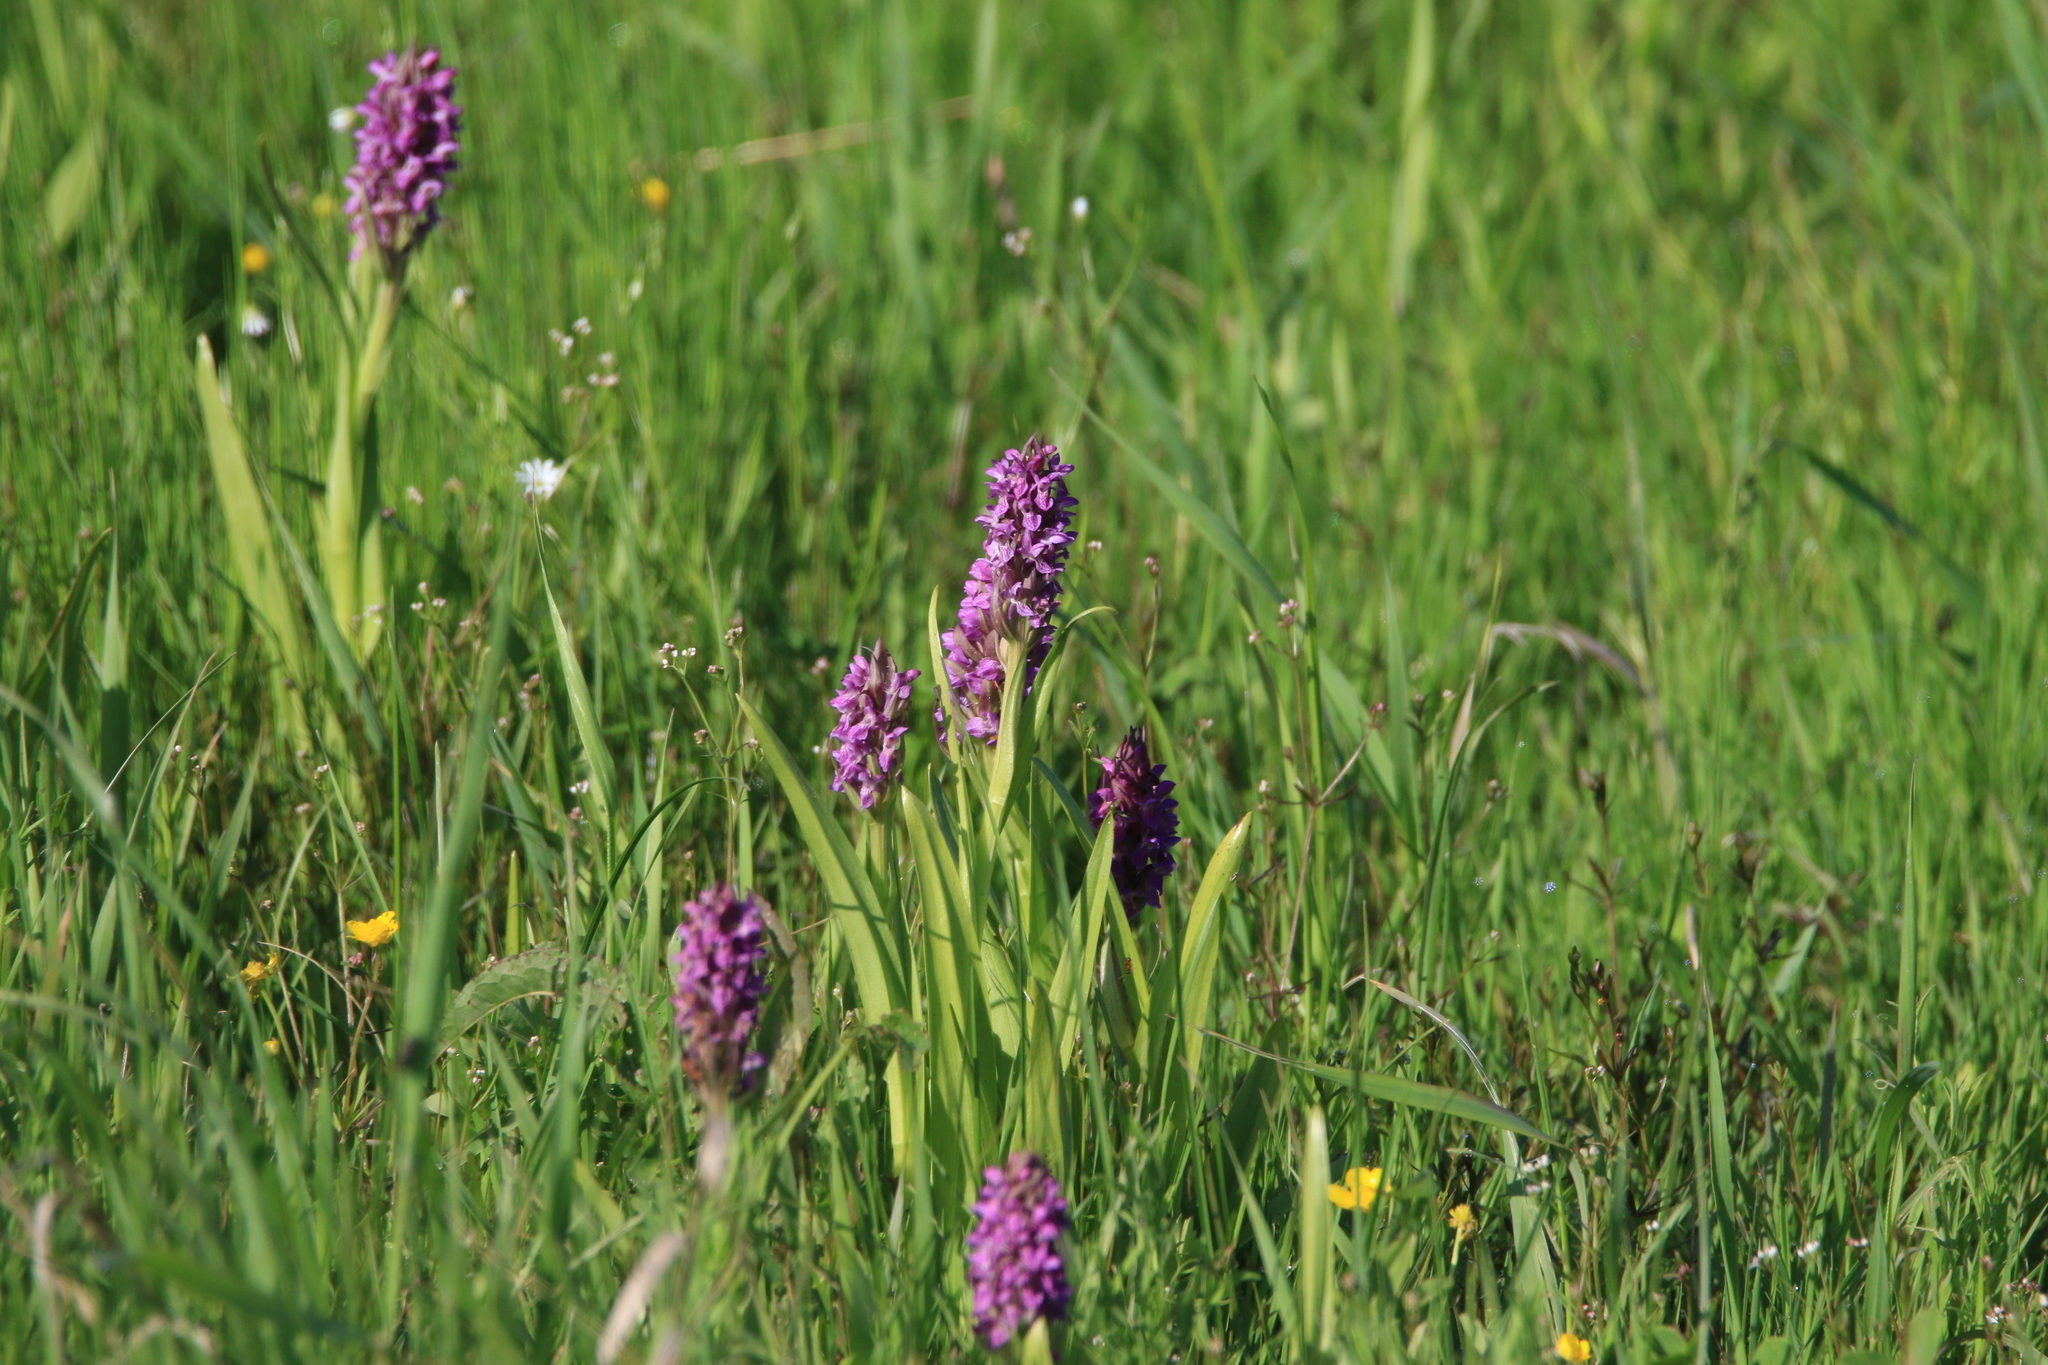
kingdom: Plantae
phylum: Tracheophyta
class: Liliopsida
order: Asparagales
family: Orchidaceae
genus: Dactylorhiza
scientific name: Dactylorhiza incarnata
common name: Early marsh-orchid
